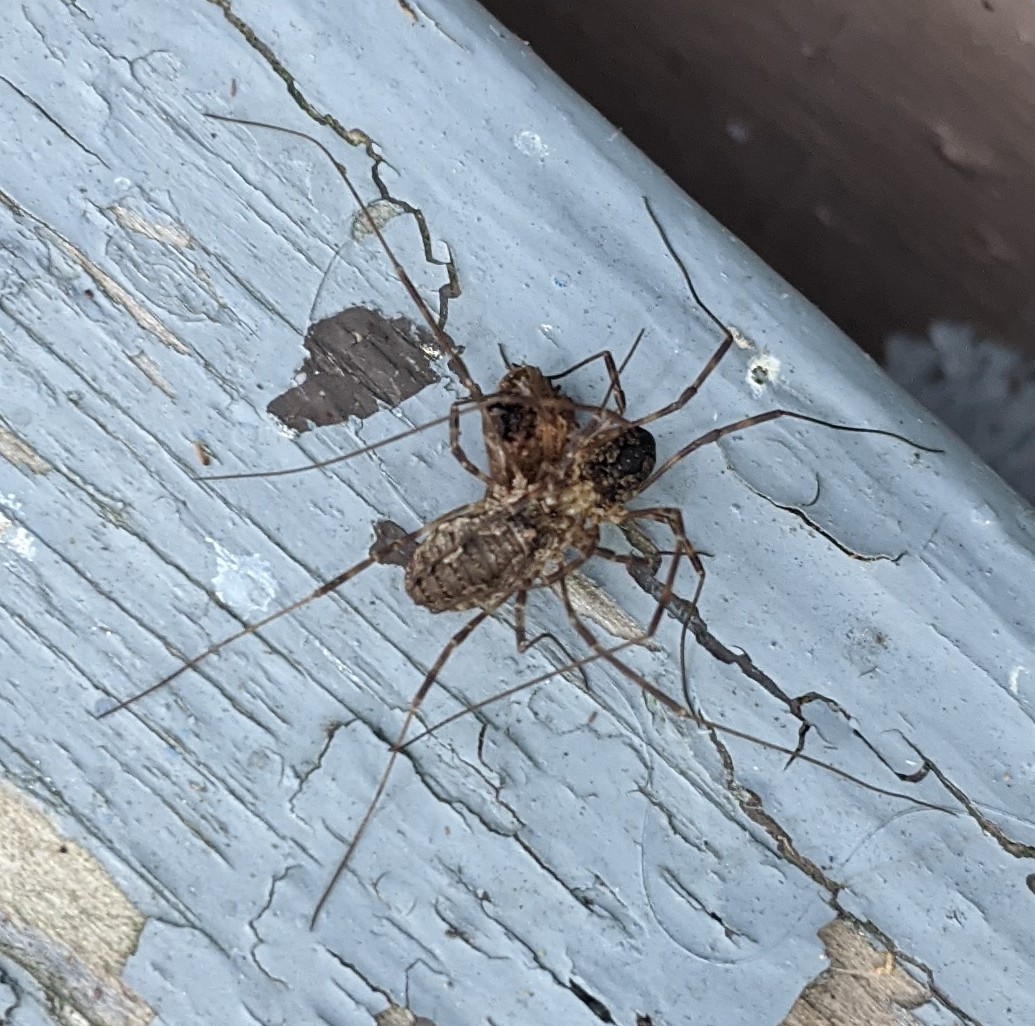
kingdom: Animalia
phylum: Arthropoda
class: Arachnida
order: Opiliones
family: Phalangiidae
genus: Odiellus
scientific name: Odiellus pictus
